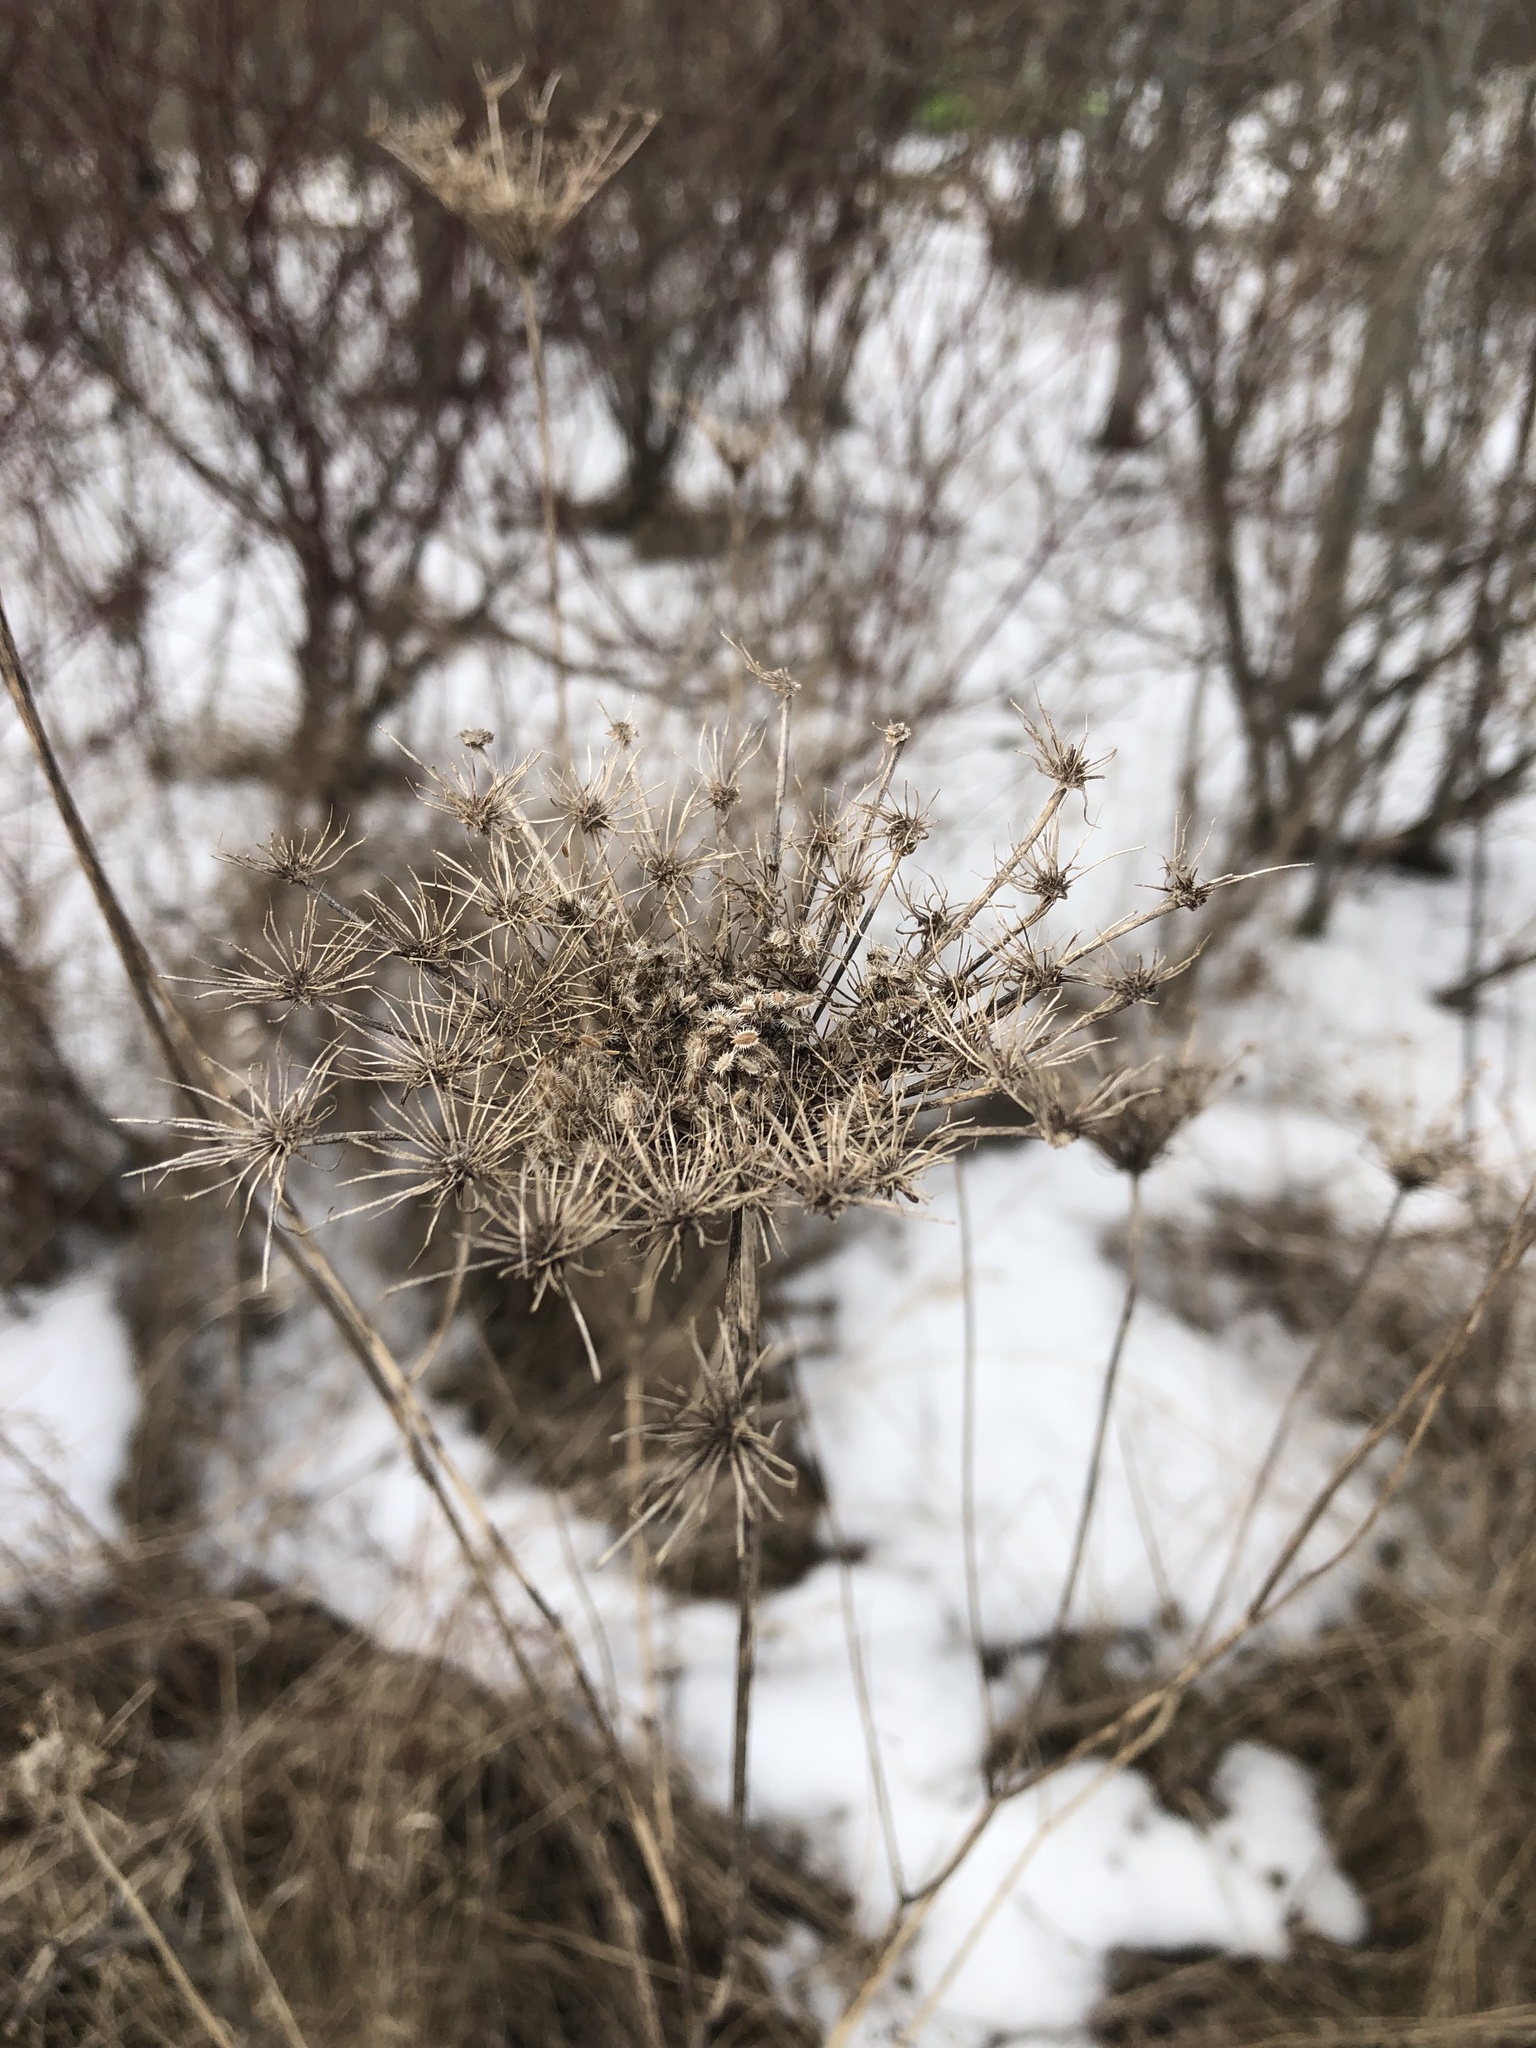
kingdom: Plantae
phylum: Tracheophyta
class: Magnoliopsida
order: Apiales
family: Apiaceae
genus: Daucus
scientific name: Daucus carota
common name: Wild carrot
